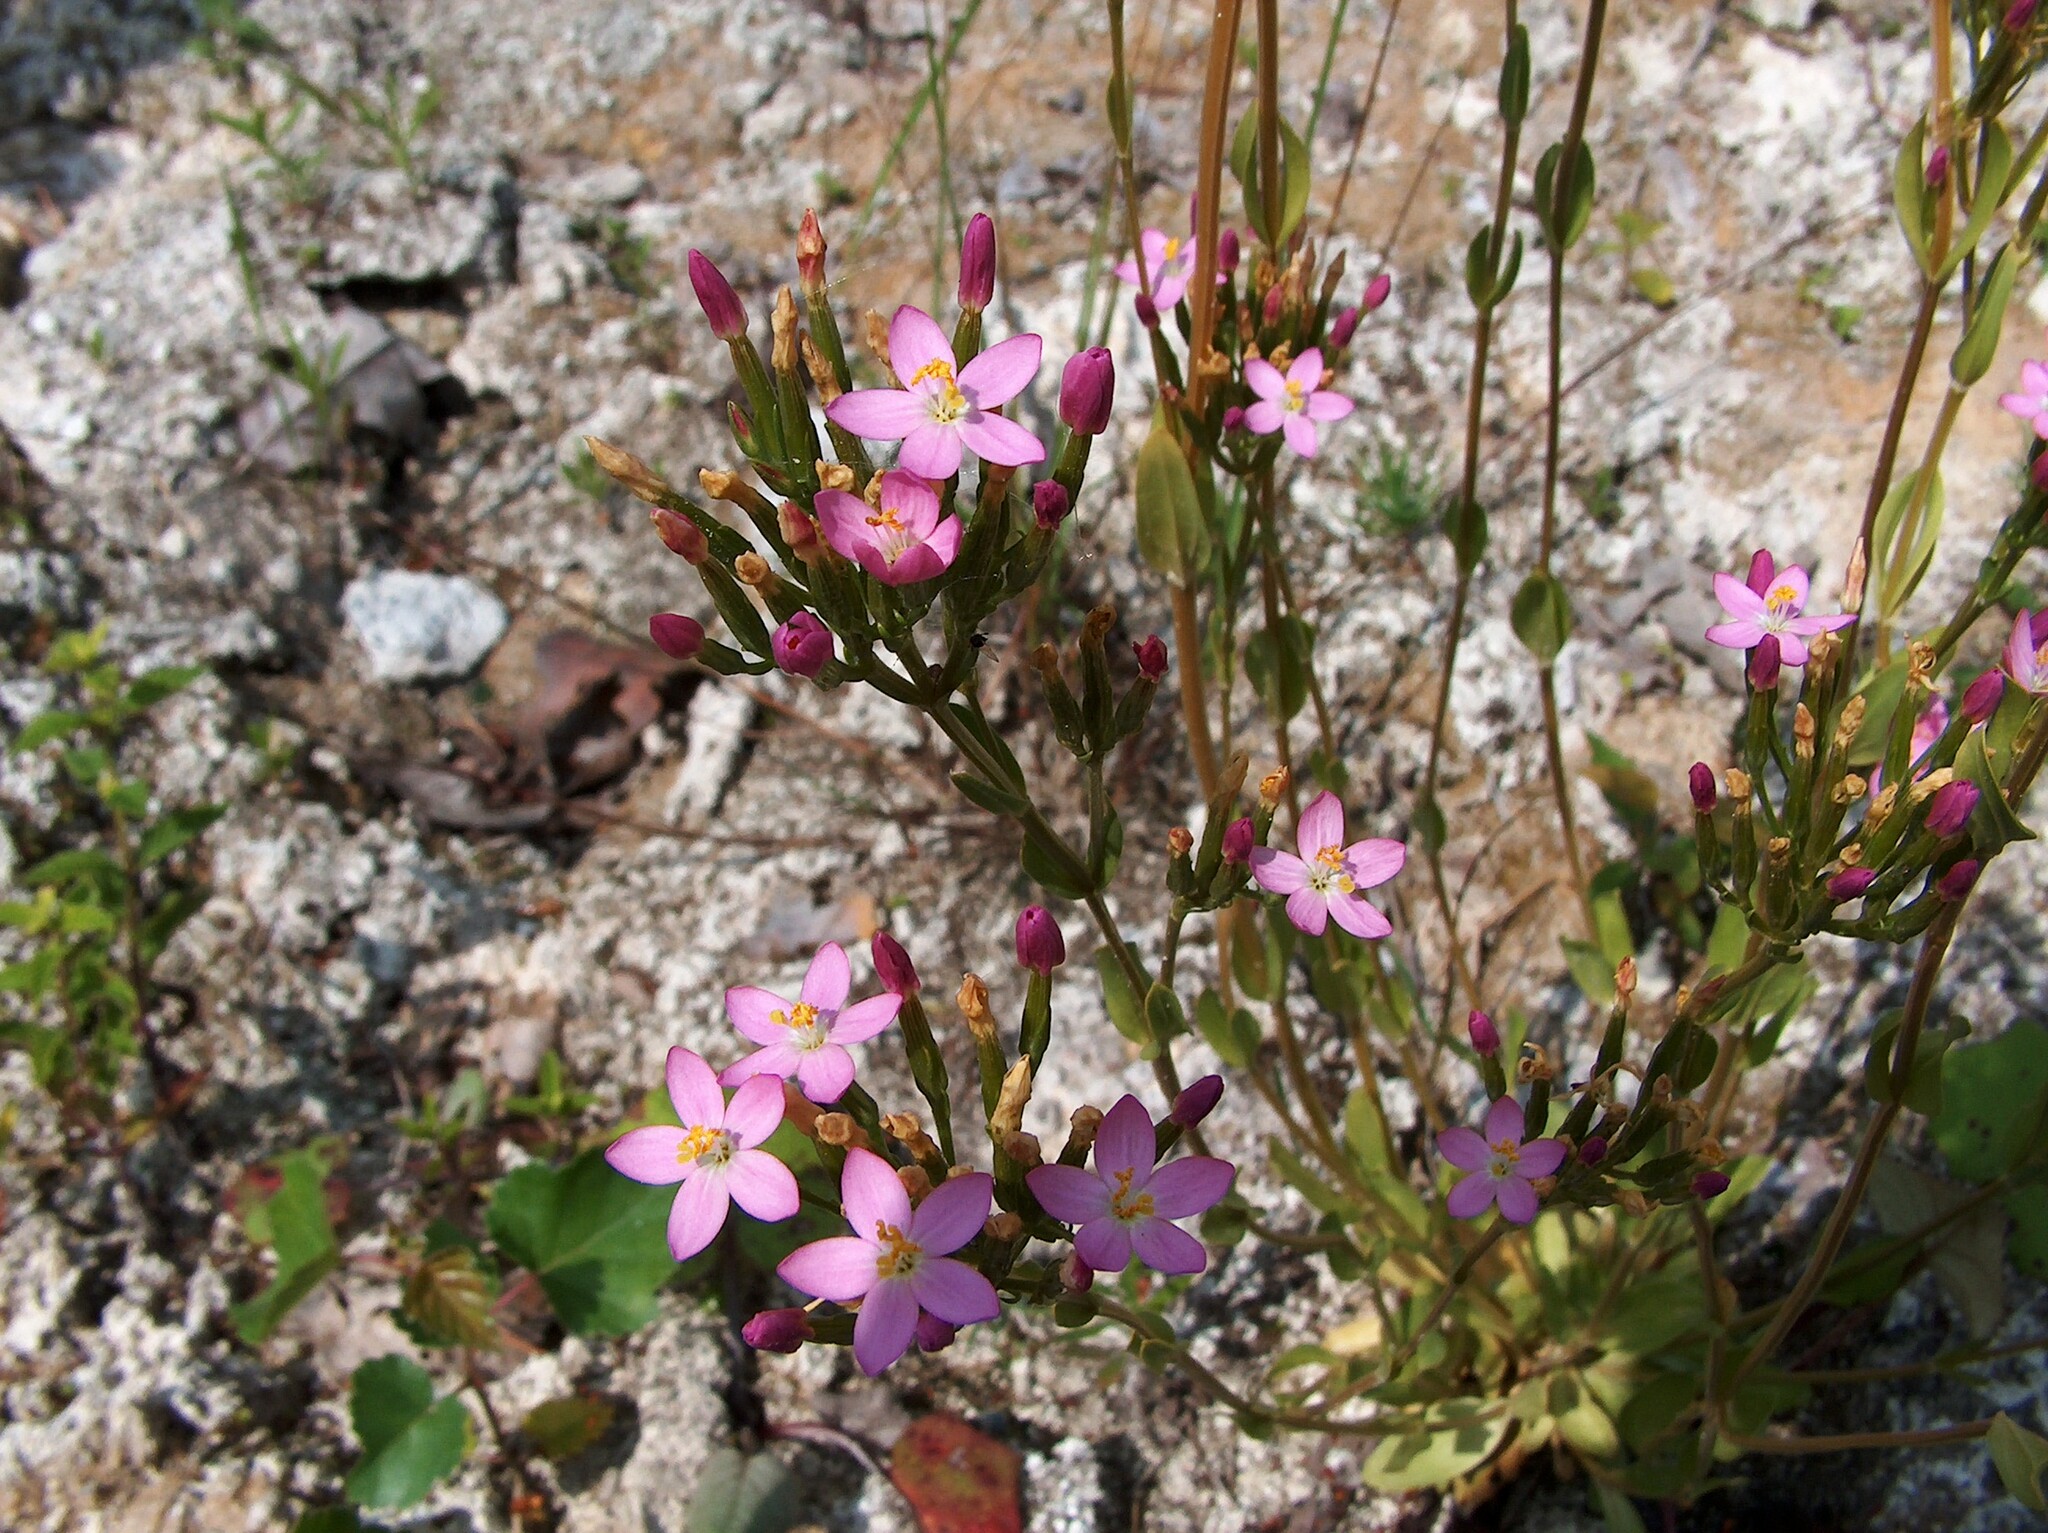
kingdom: Plantae
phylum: Tracheophyta
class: Magnoliopsida
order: Gentianales
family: Gentianaceae
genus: Centaurium
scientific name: Centaurium erythraea
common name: Common centaury
